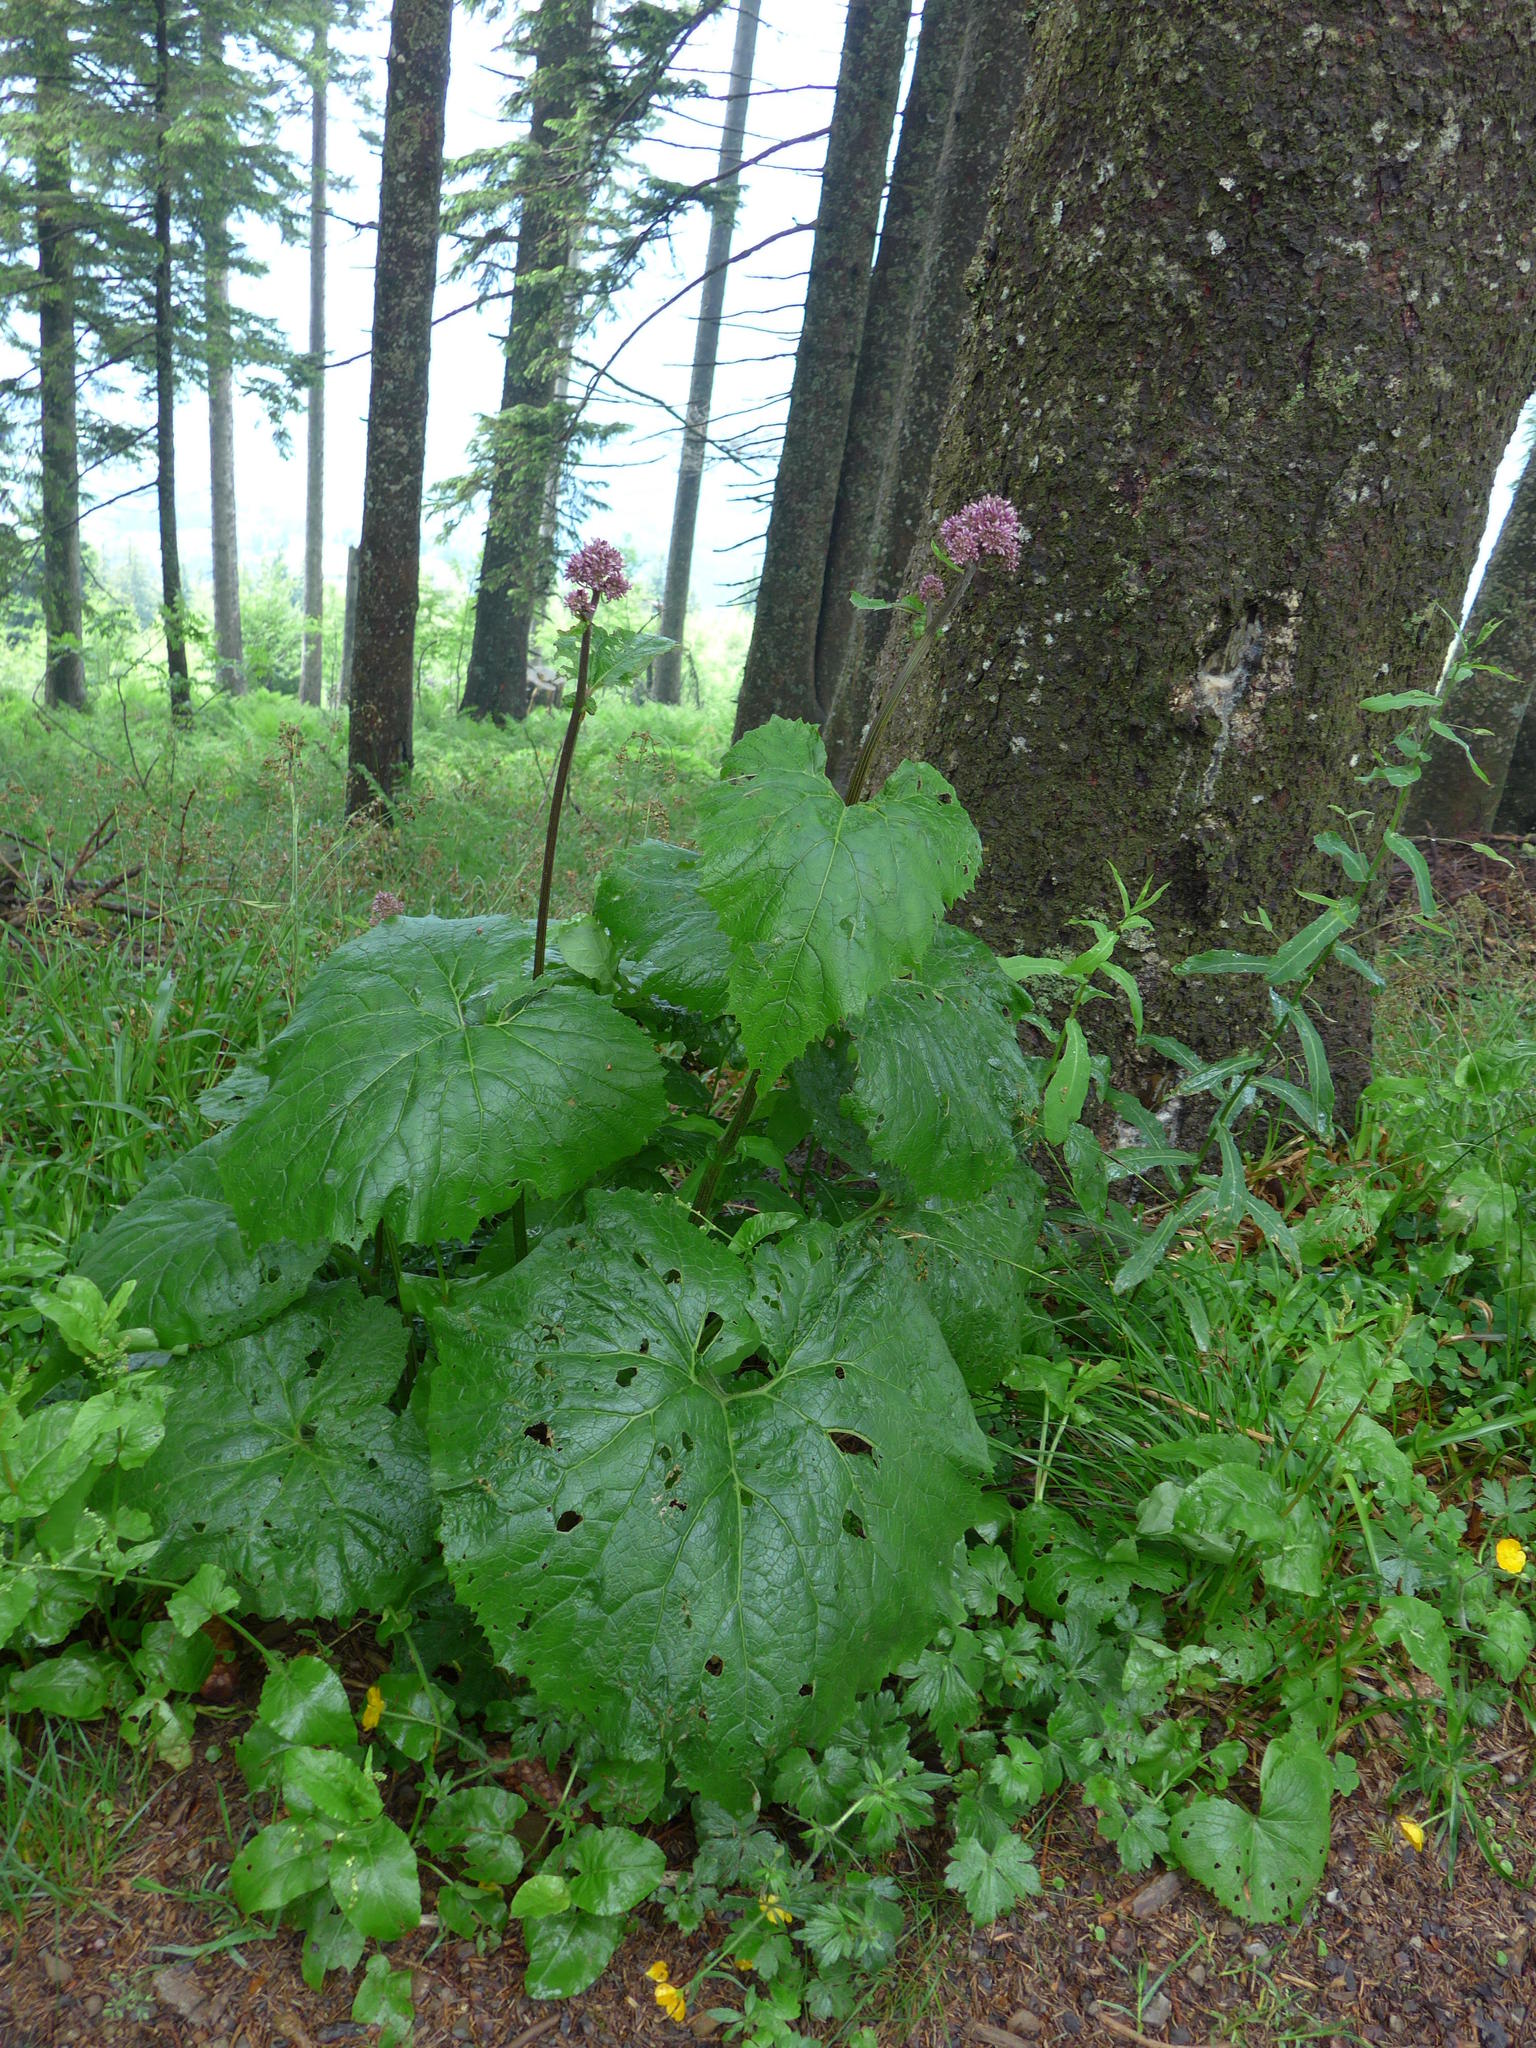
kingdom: Plantae
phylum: Tracheophyta
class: Magnoliopsida
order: Asterales
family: Asteraceae
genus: Adenostyles
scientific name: Adenostyles alliariae
